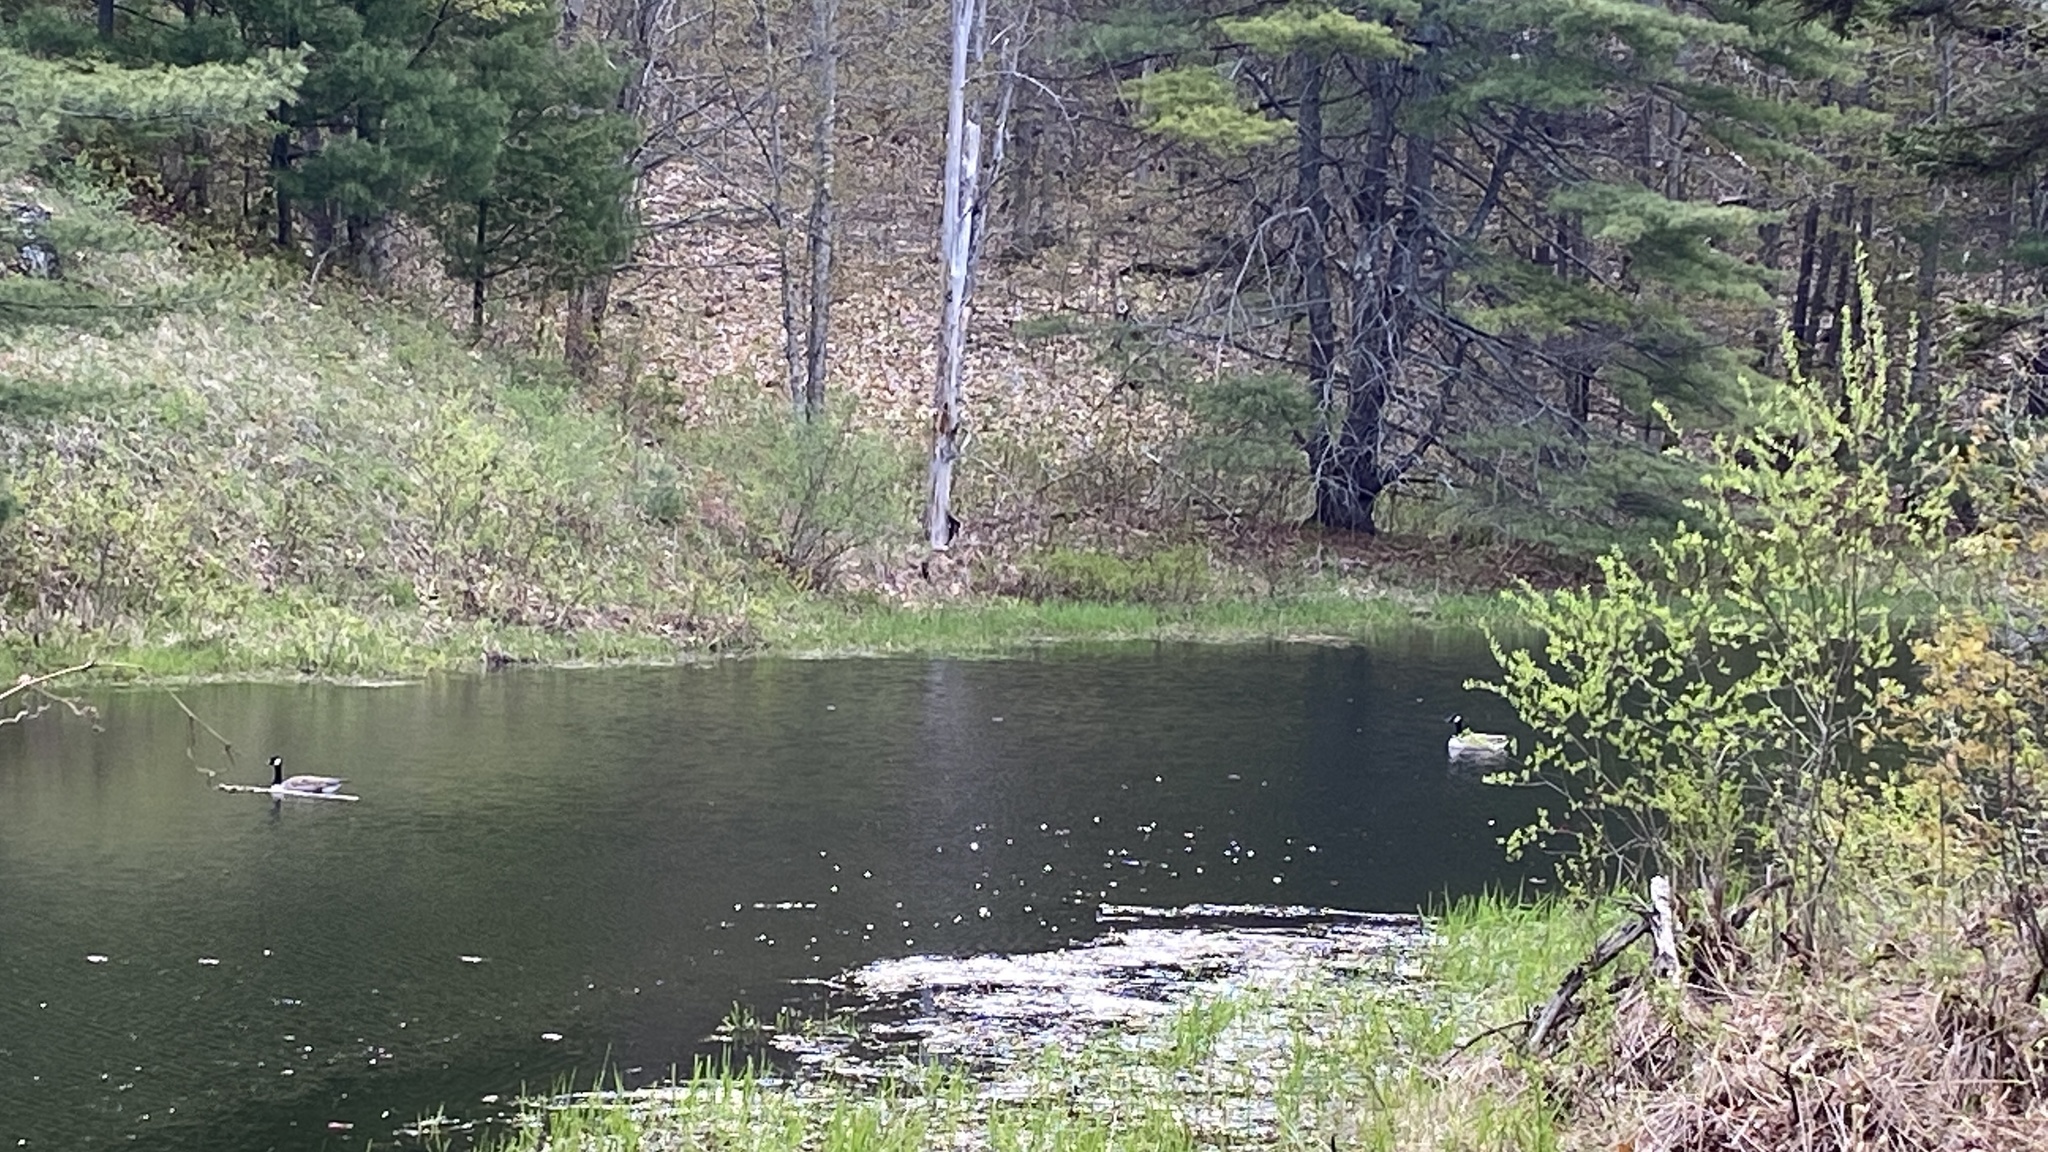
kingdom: Animalia
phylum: Chordata
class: Aves
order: Anseriformes
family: Anatidae
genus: Branta
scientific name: Branta canadensis
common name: Canada goose
